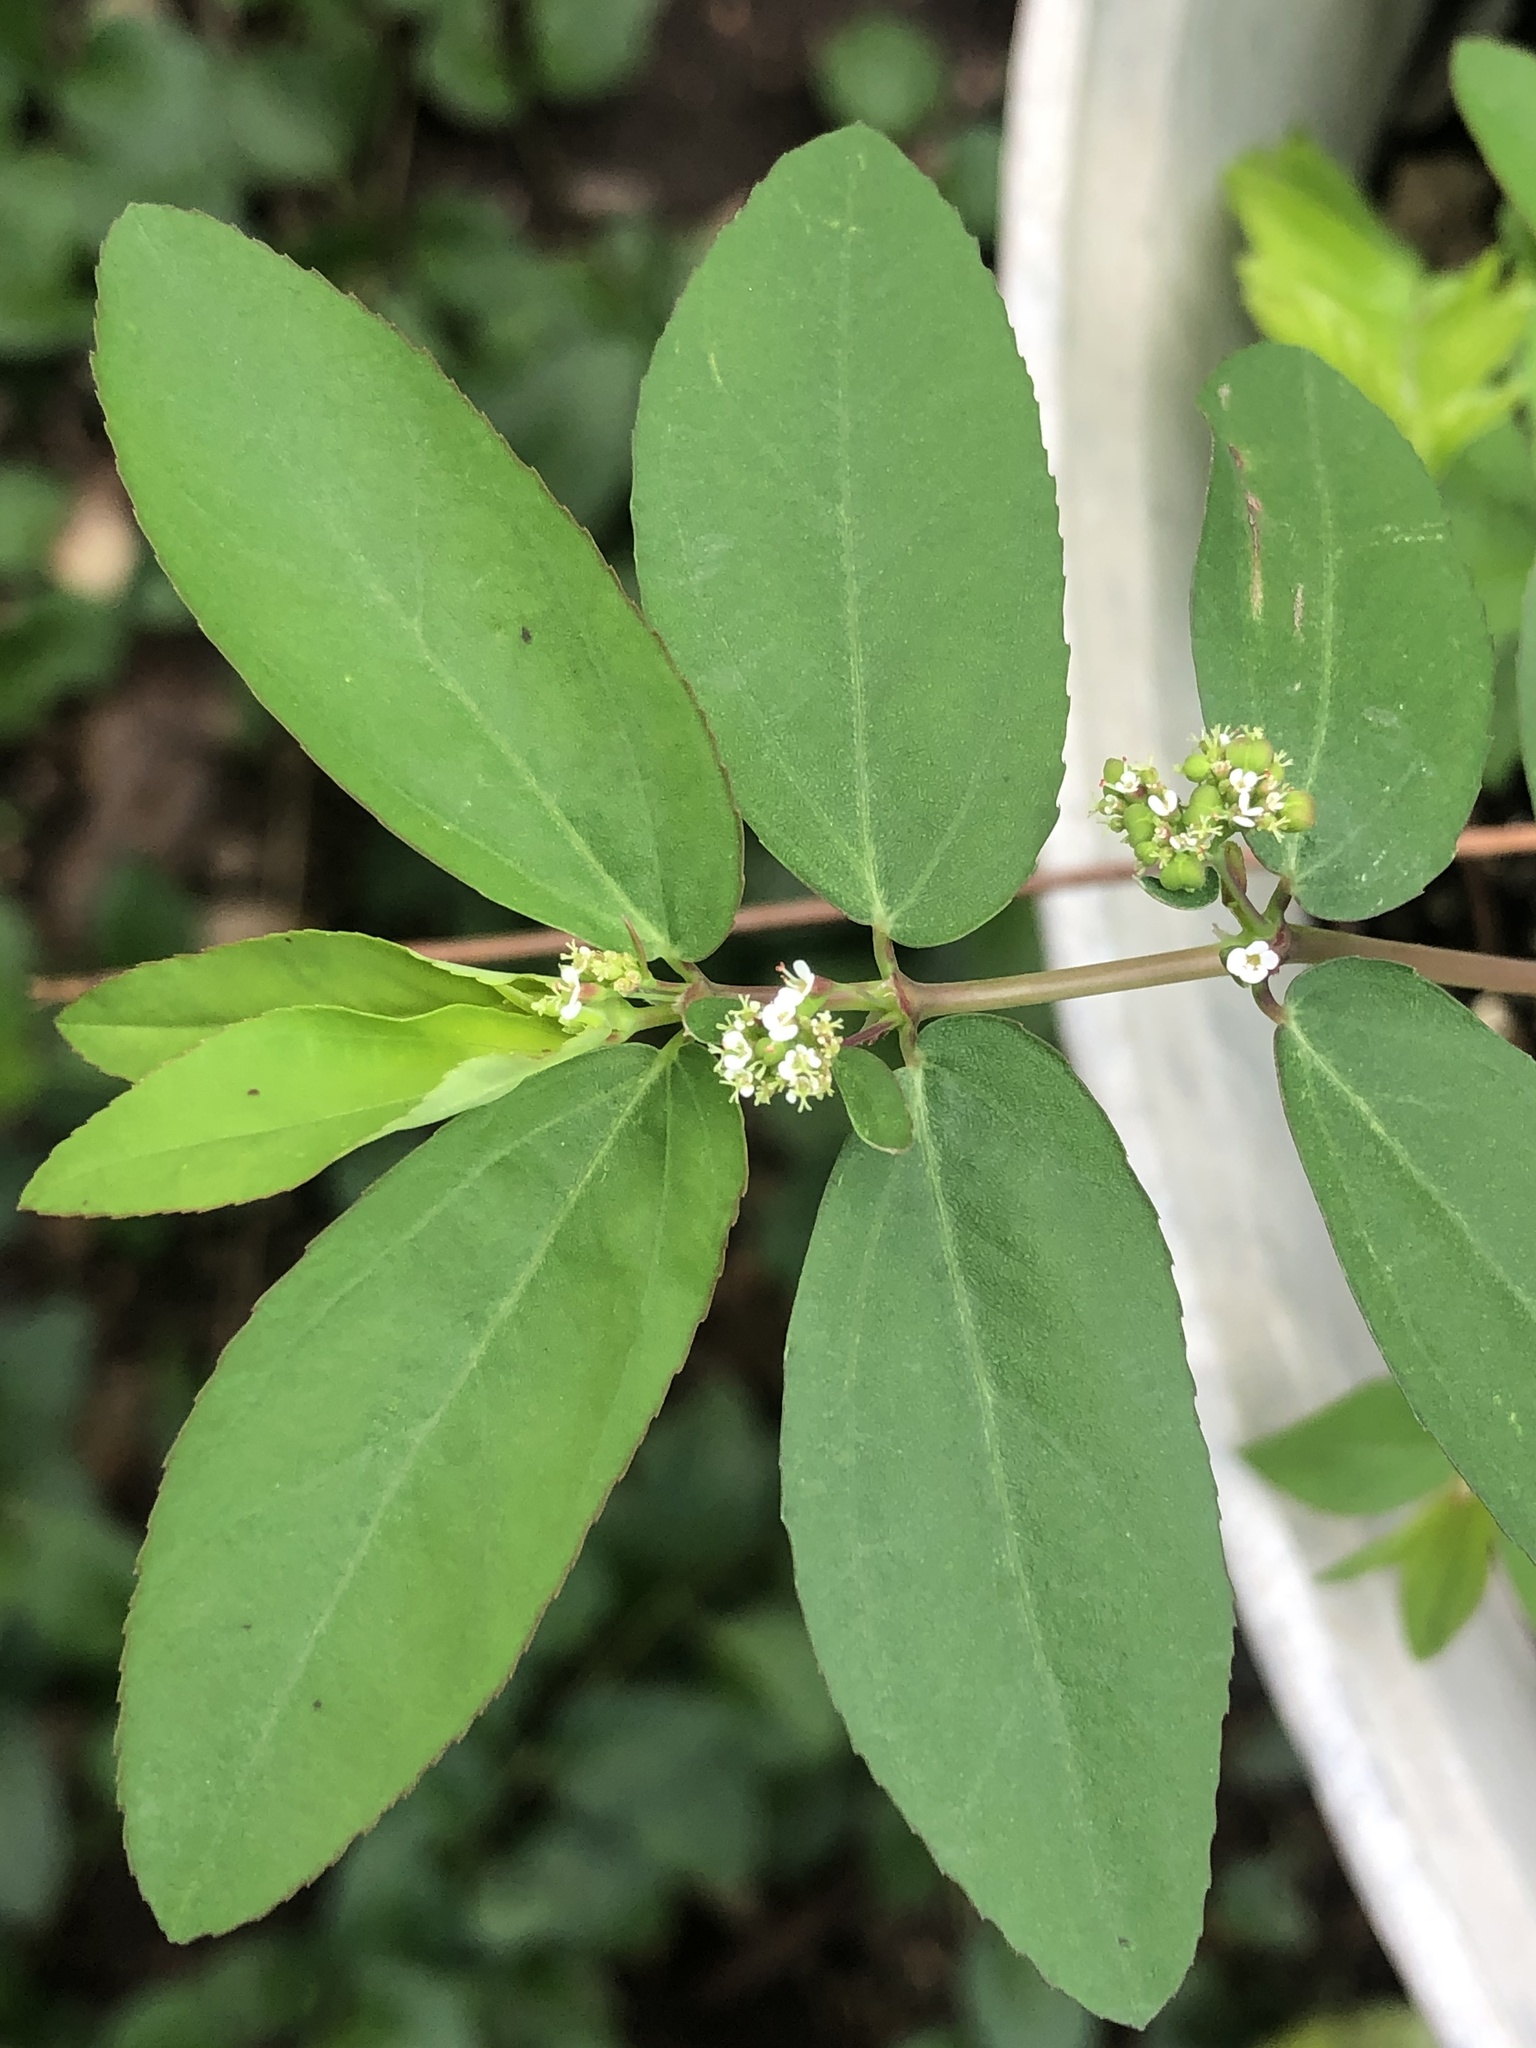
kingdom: Plantae
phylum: Tracheophyta
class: Magnoliopsida
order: Malpighiales
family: Euphorbiaceae
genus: Euphorbia
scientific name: Euphorbia hypericifolia
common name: Graceful sandmat
